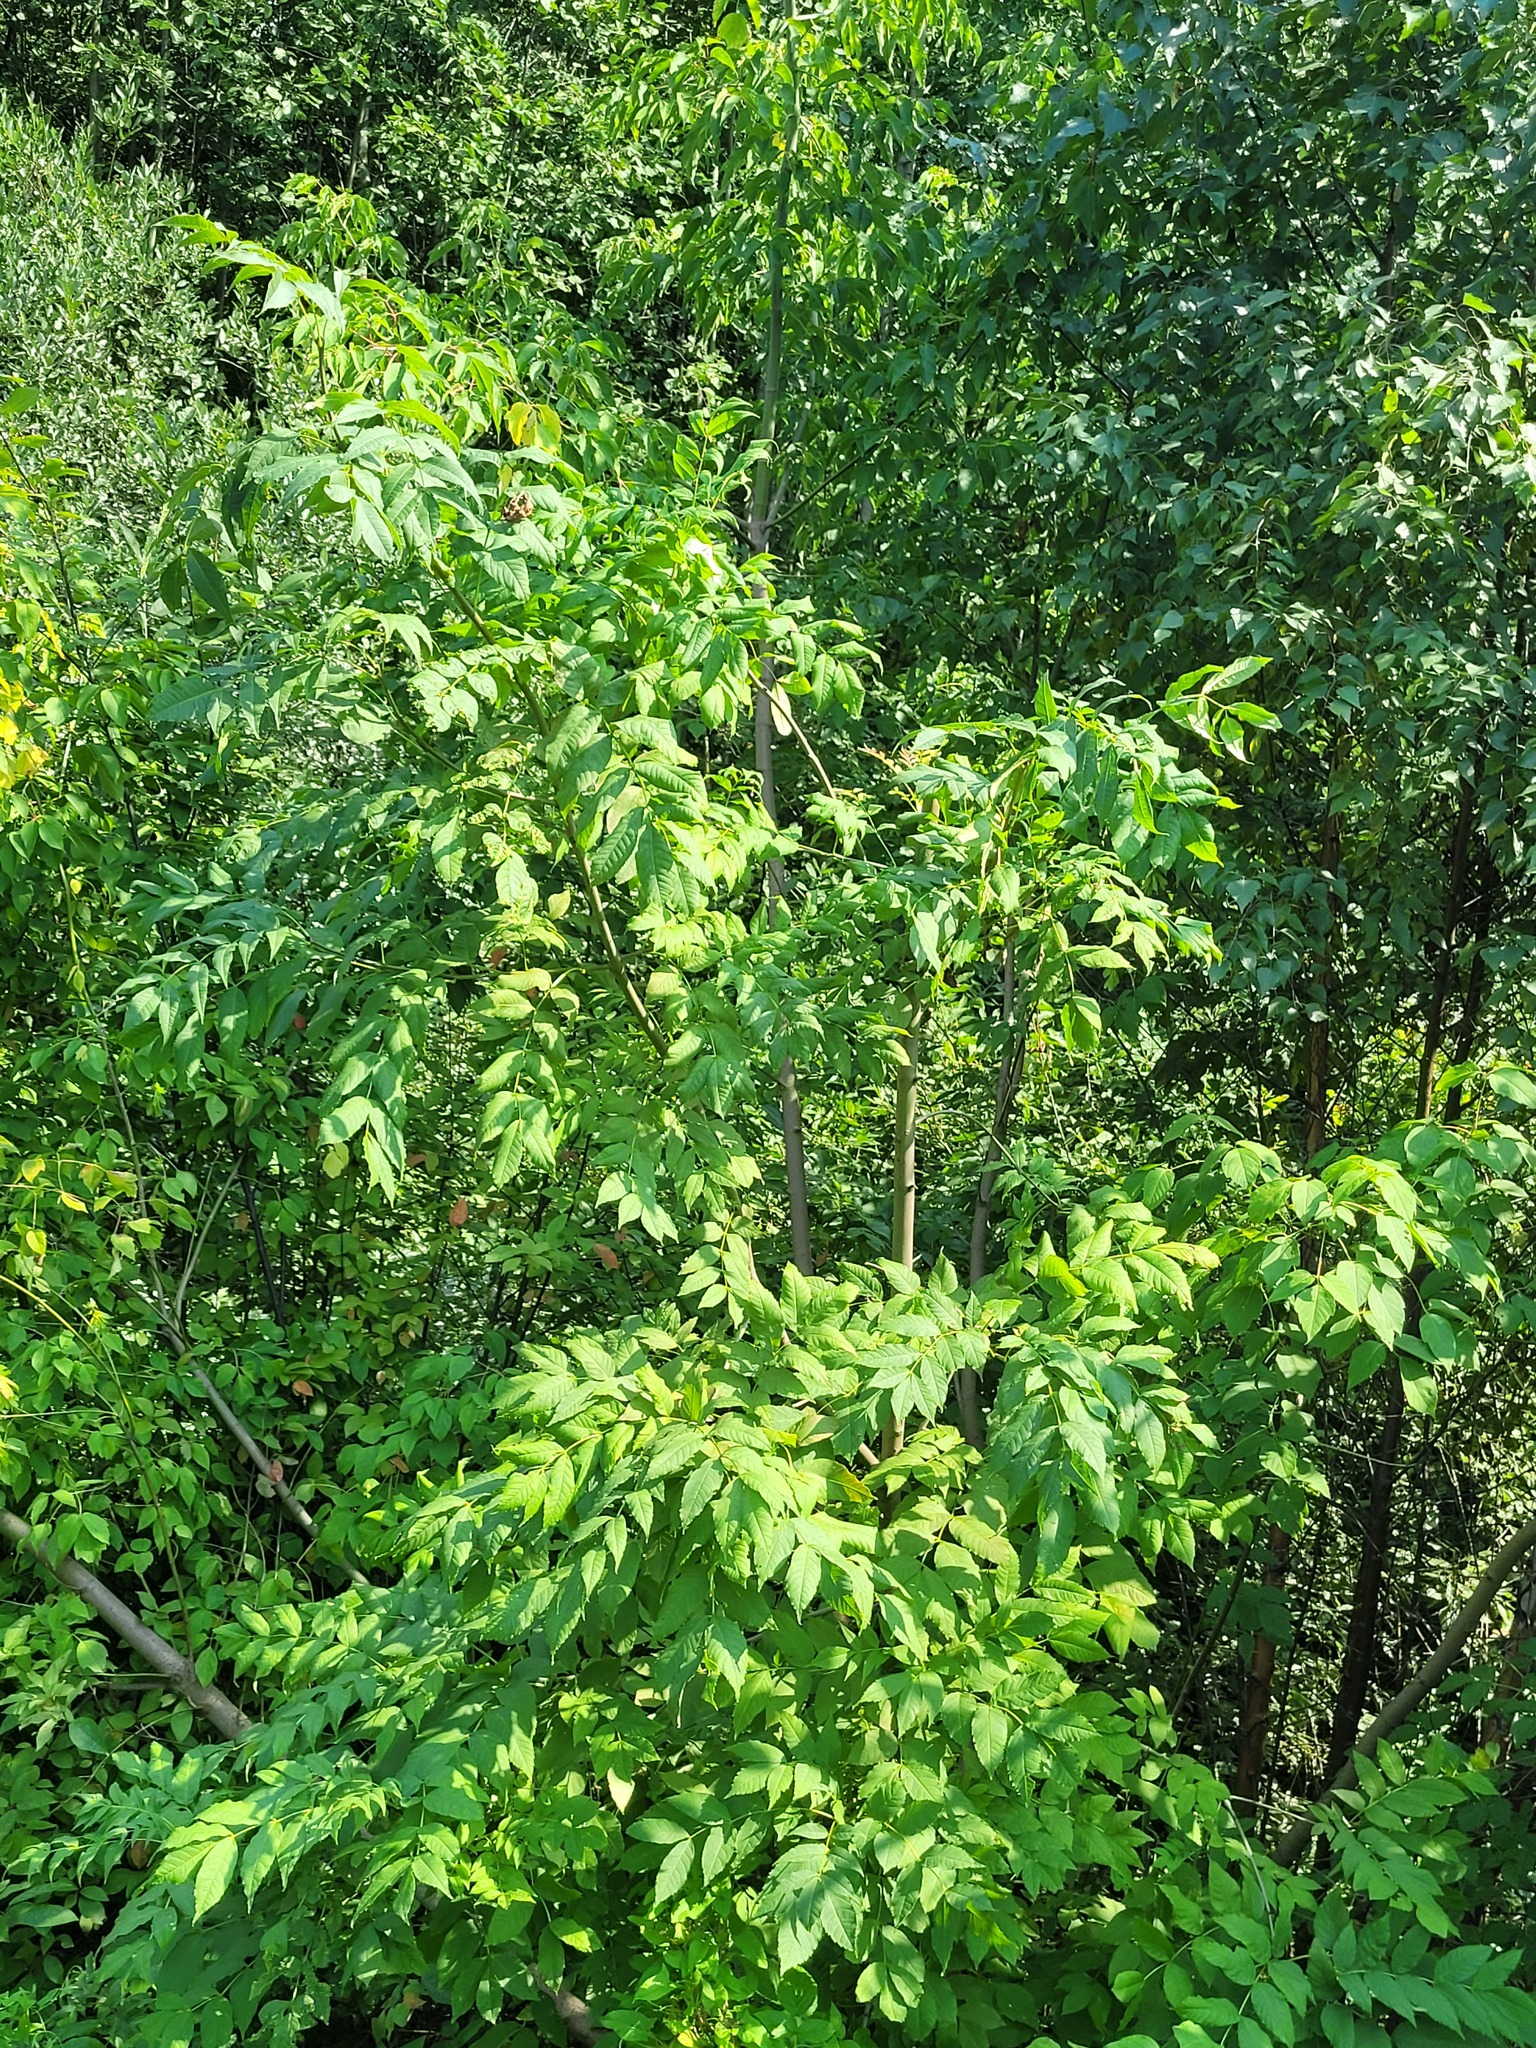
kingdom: Plantae
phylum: Tracheophyta
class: Magnoliopsida
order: Lamiales
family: Oleaceae
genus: Fraxinus
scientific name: Fraxinus excelsior
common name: European ash
